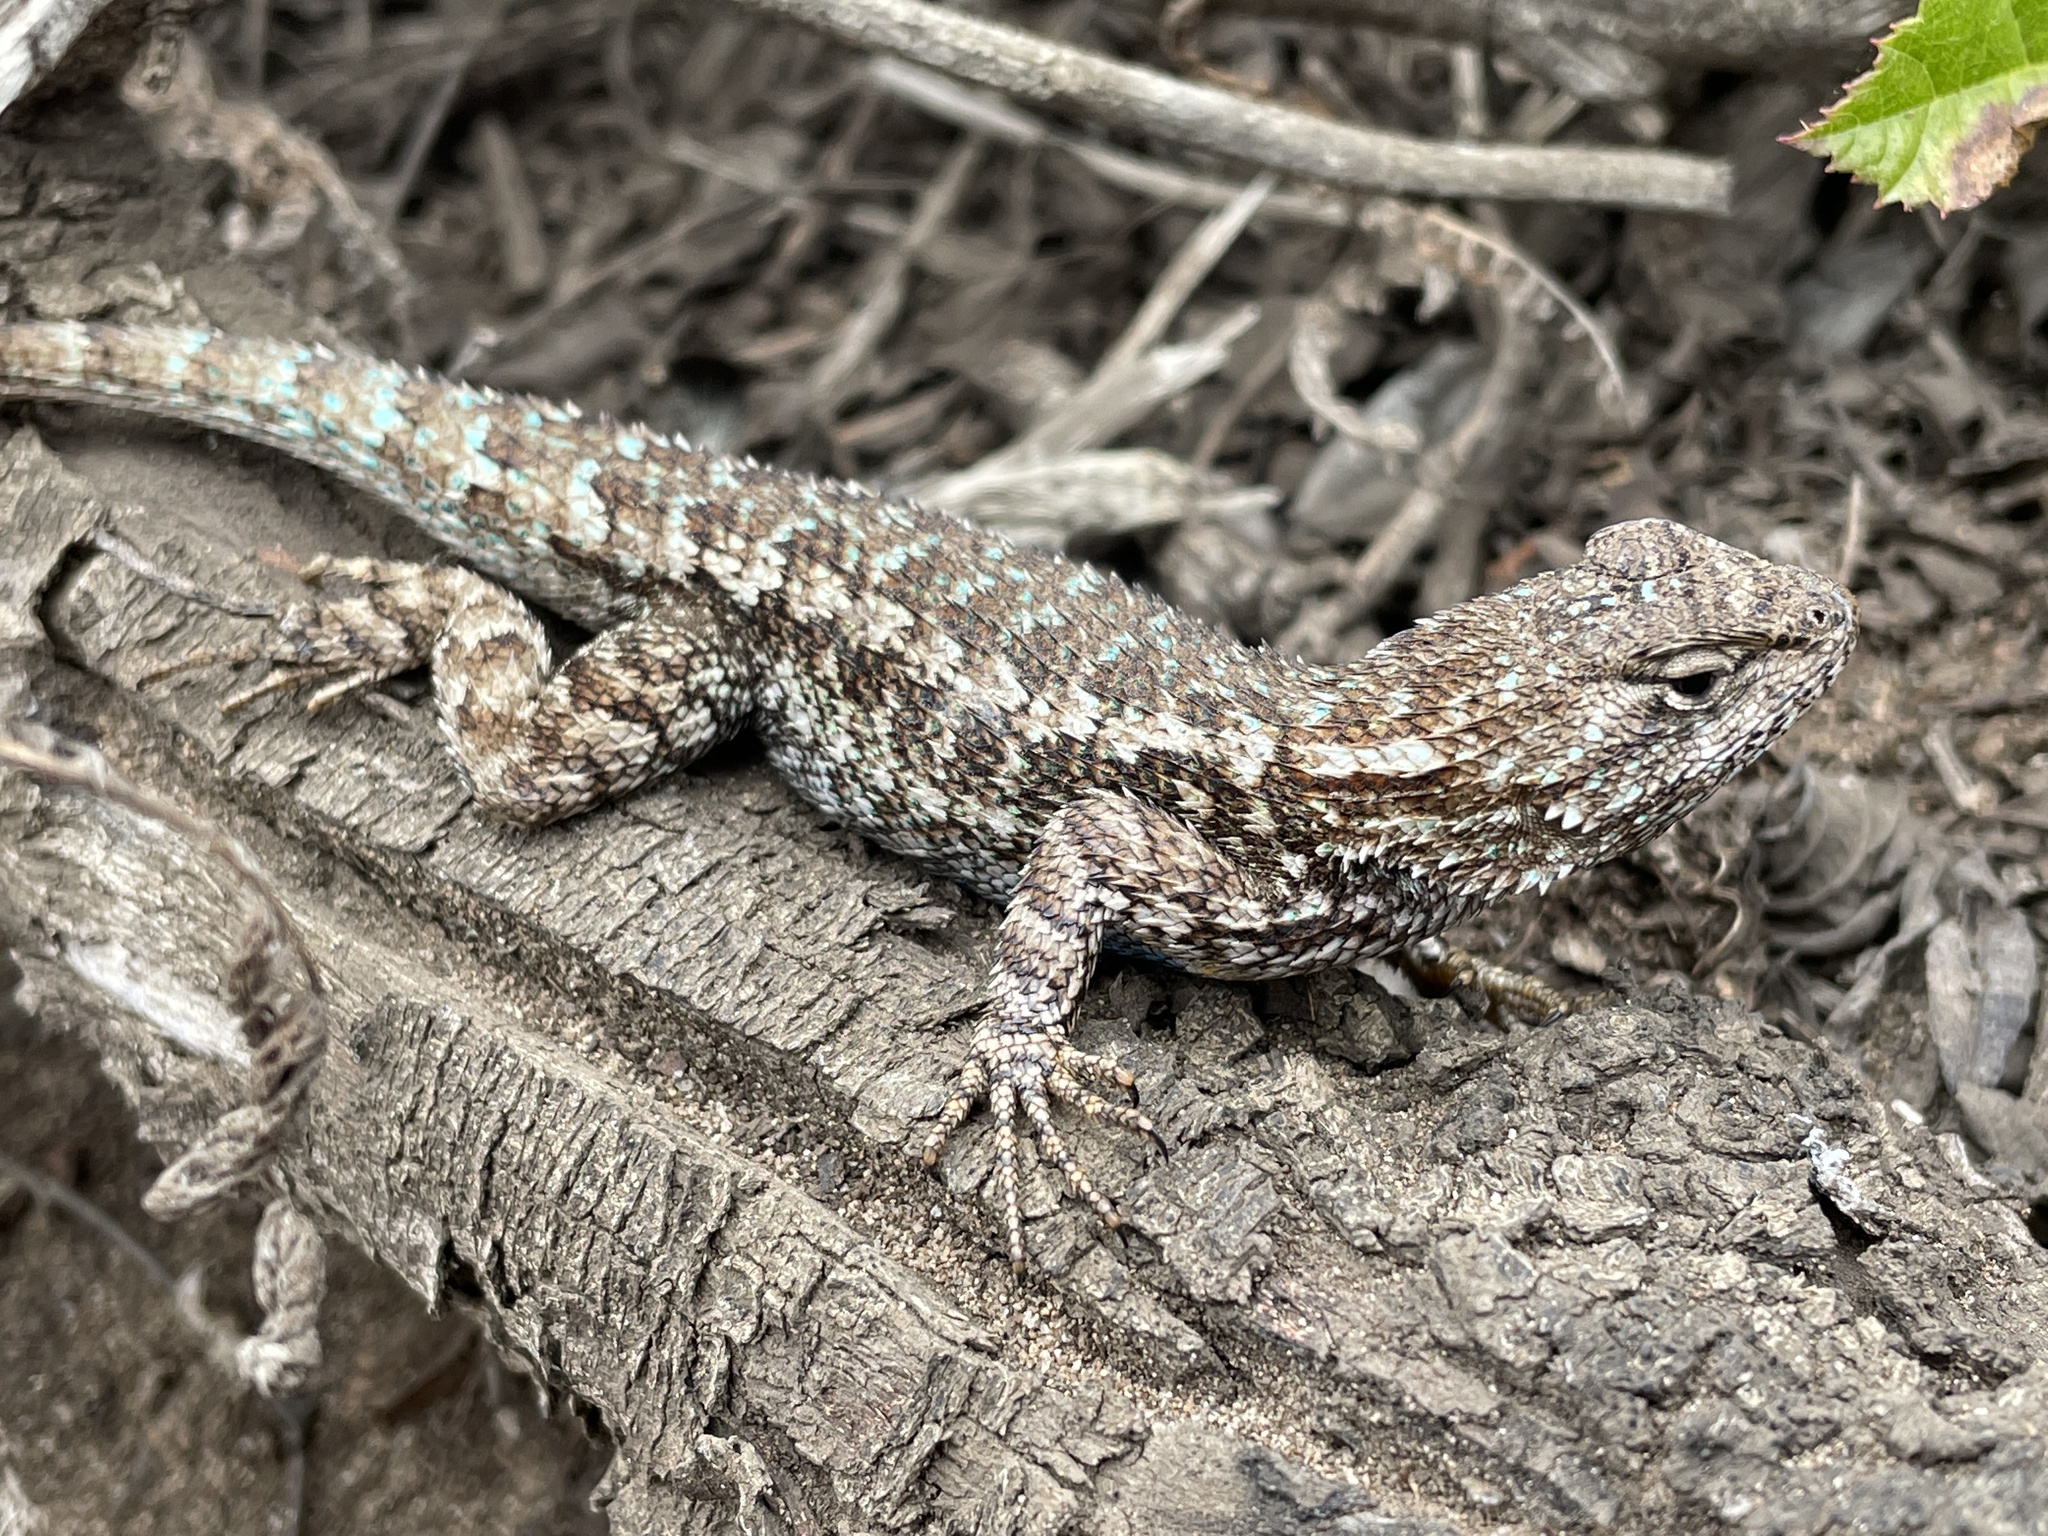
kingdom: Animalia
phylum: Chordata
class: Squamata
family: Phrynosomatidae
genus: Sceloporus
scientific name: Sceloporus occidentalis
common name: Western fence lizard
